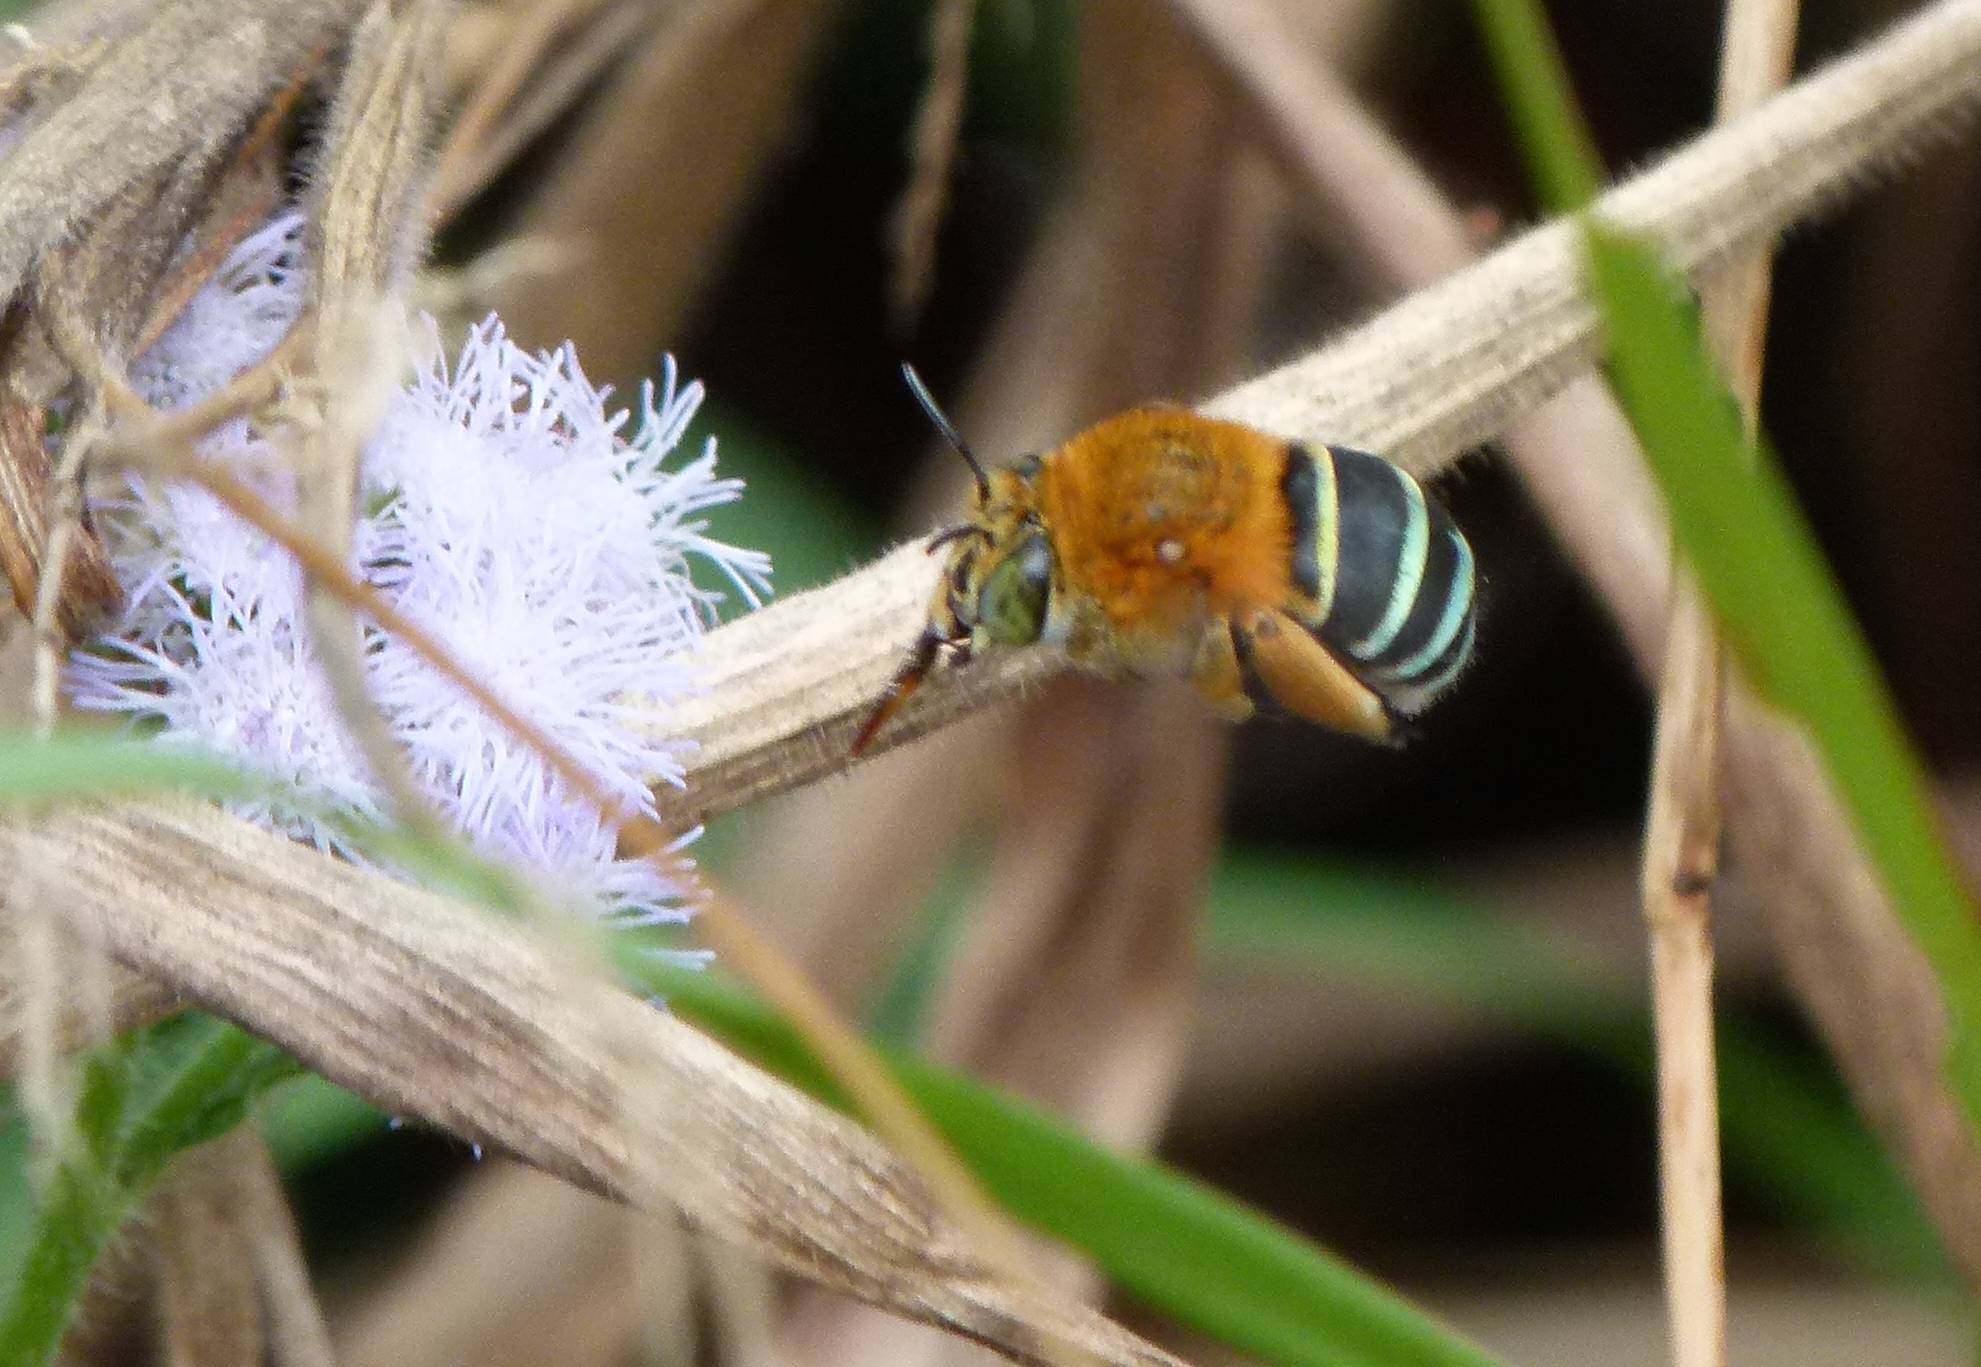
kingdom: Animalia
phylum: Arthropoda
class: Insecta
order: Hymenoptera
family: Apidae
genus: Amegilla
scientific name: Amegilla cingulata
